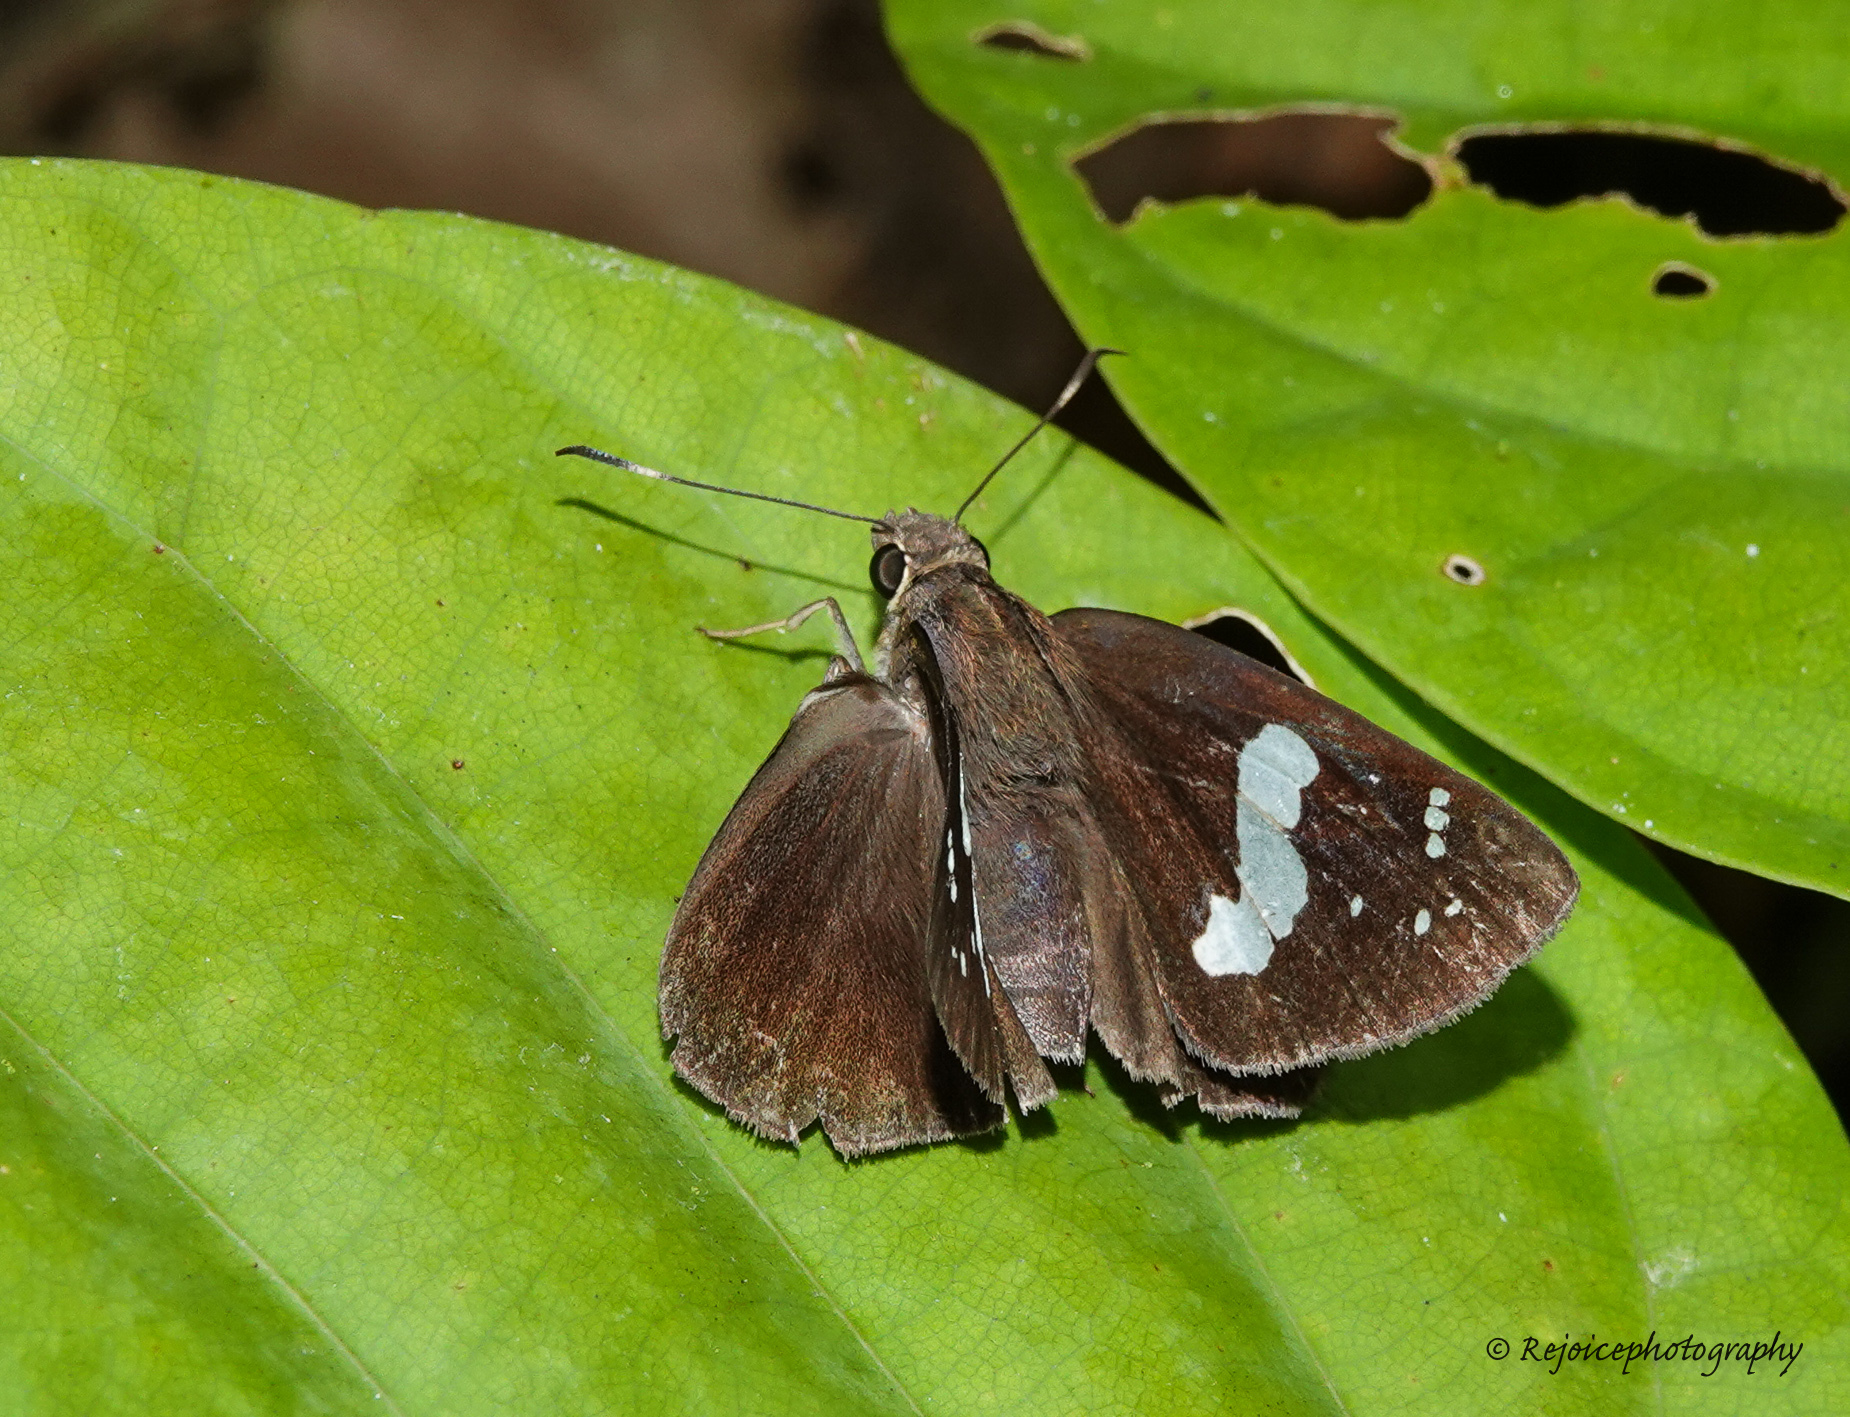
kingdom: Animalia
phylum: Arthropoda
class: Insecta
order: Lepidoptera
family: Hesperiidae
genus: Notocrypta
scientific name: Notocrypta curvifascia
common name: Restricted demon
